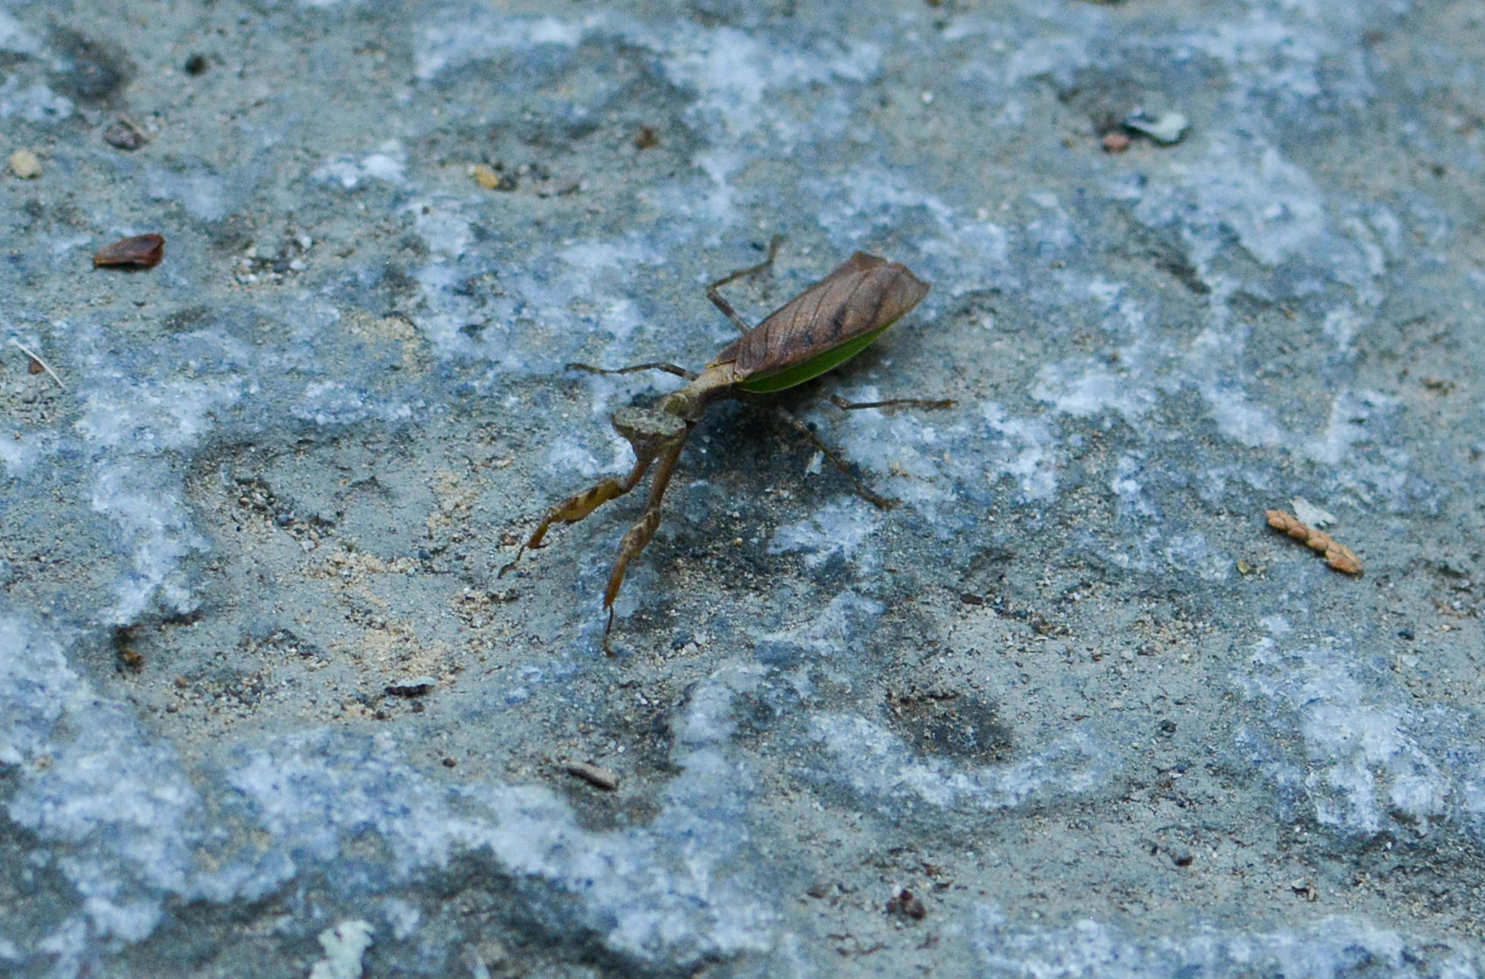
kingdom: Animalia
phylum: Arthropoda
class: Insecta
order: Mantodea
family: Hymenopodidae
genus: Acromantis
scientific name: Acromantis japonica
